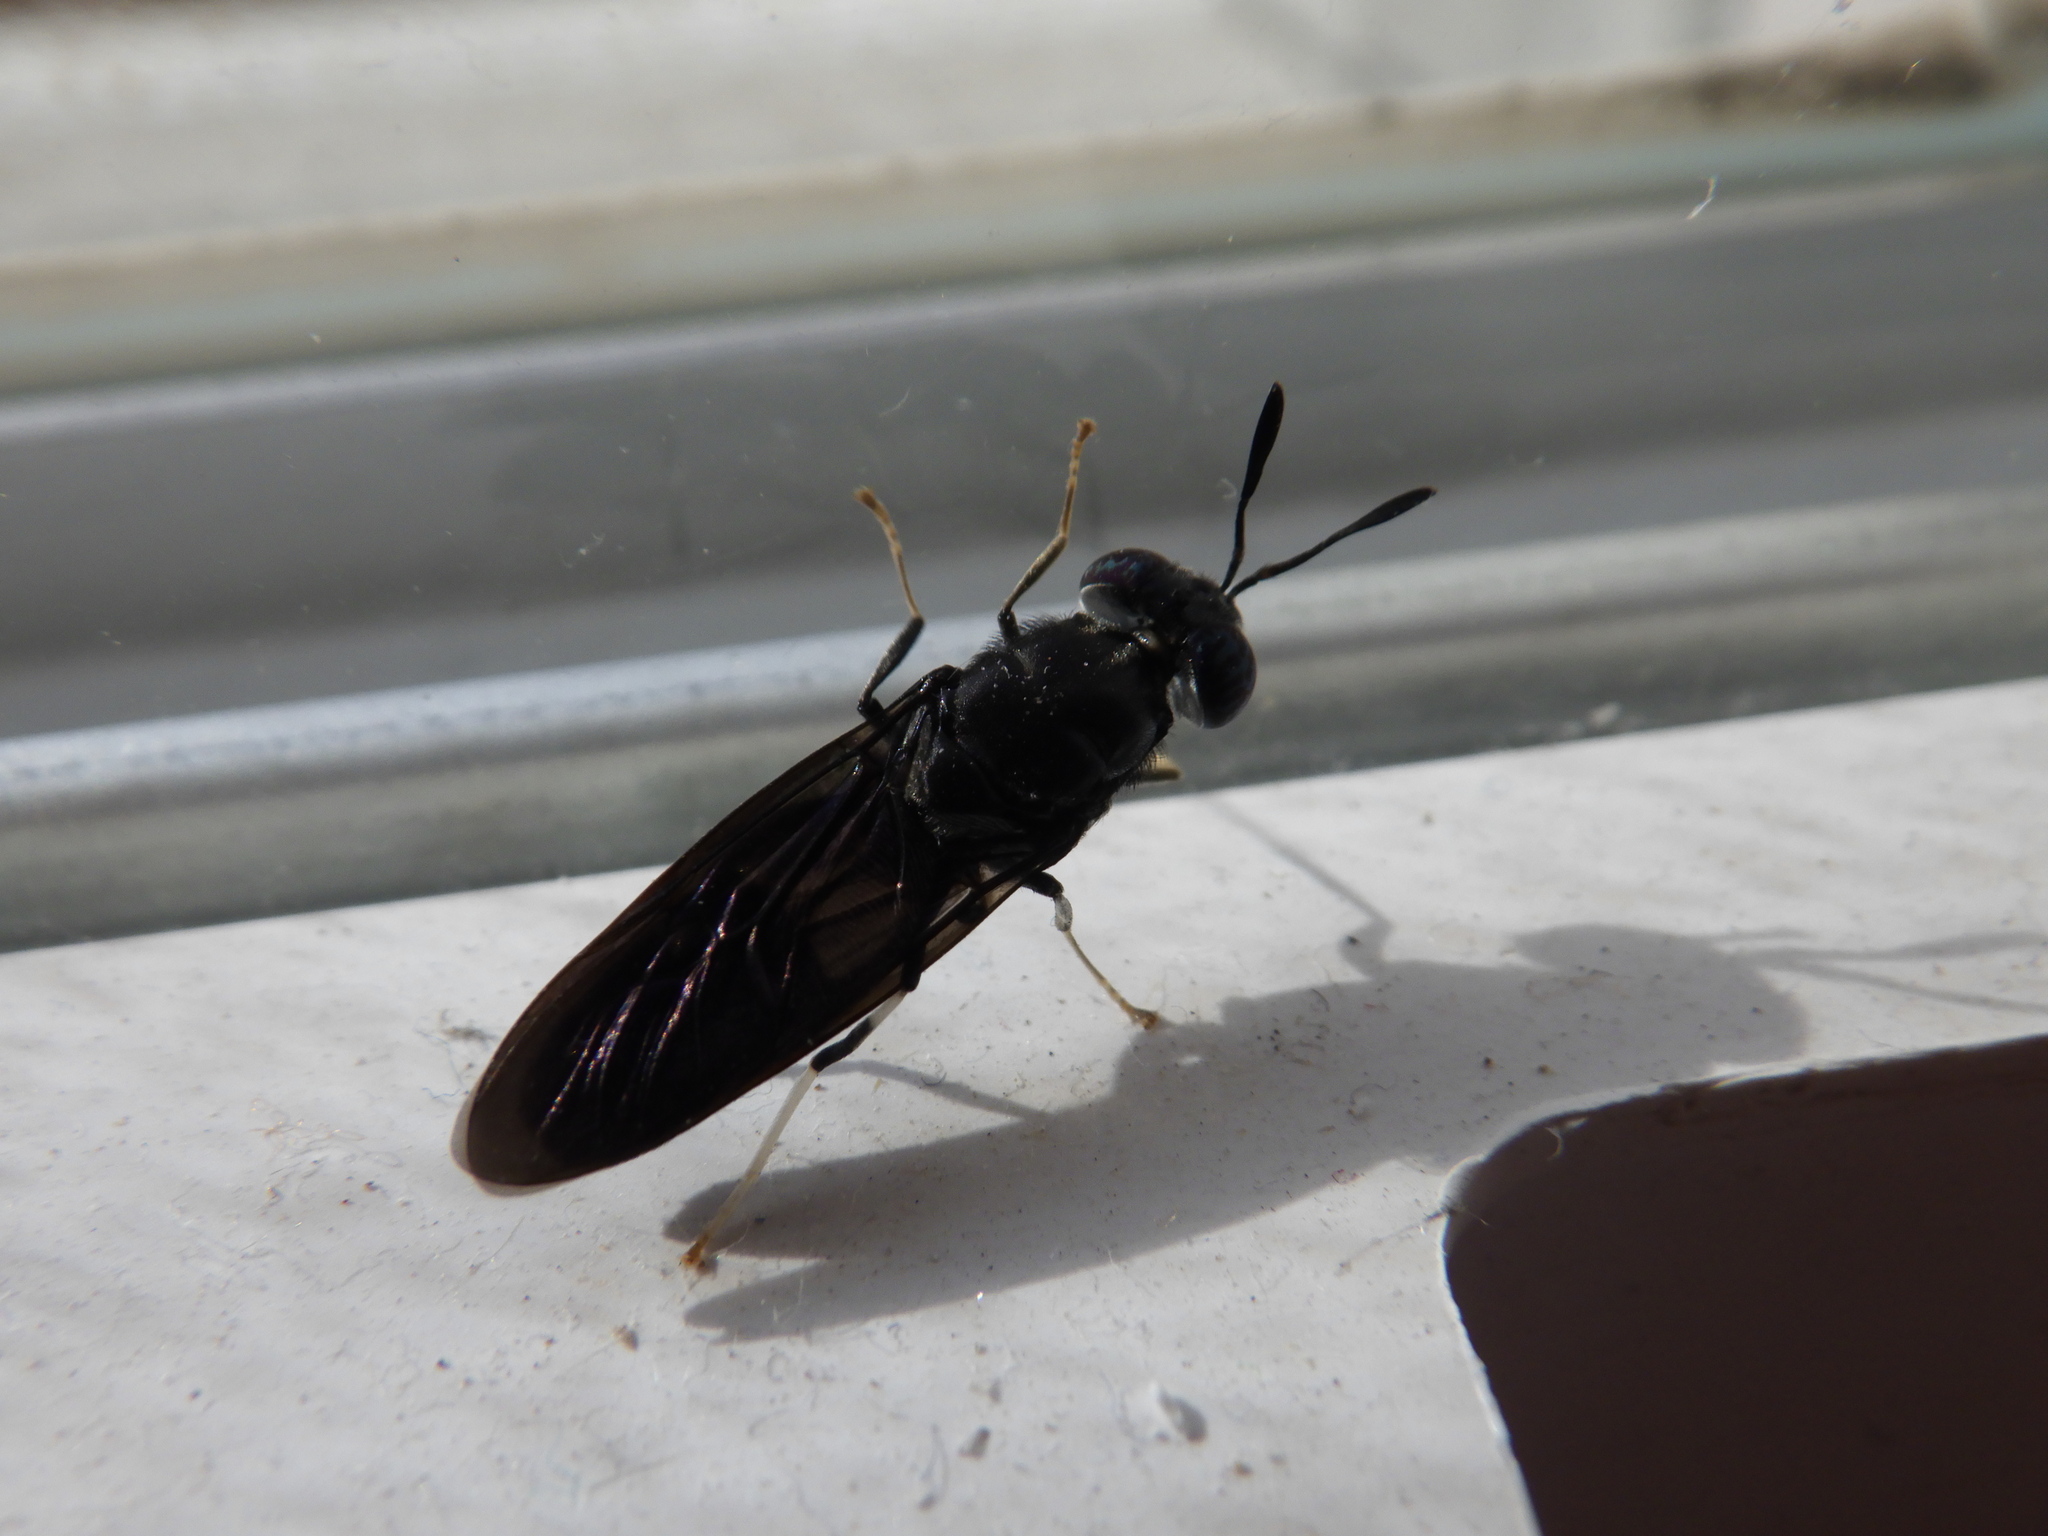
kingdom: Animalia
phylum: Arthropoda
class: Insecta
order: Diptera
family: Stratiomyidae
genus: Hermetia
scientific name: Hermetia illucens
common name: Black soldier fly
